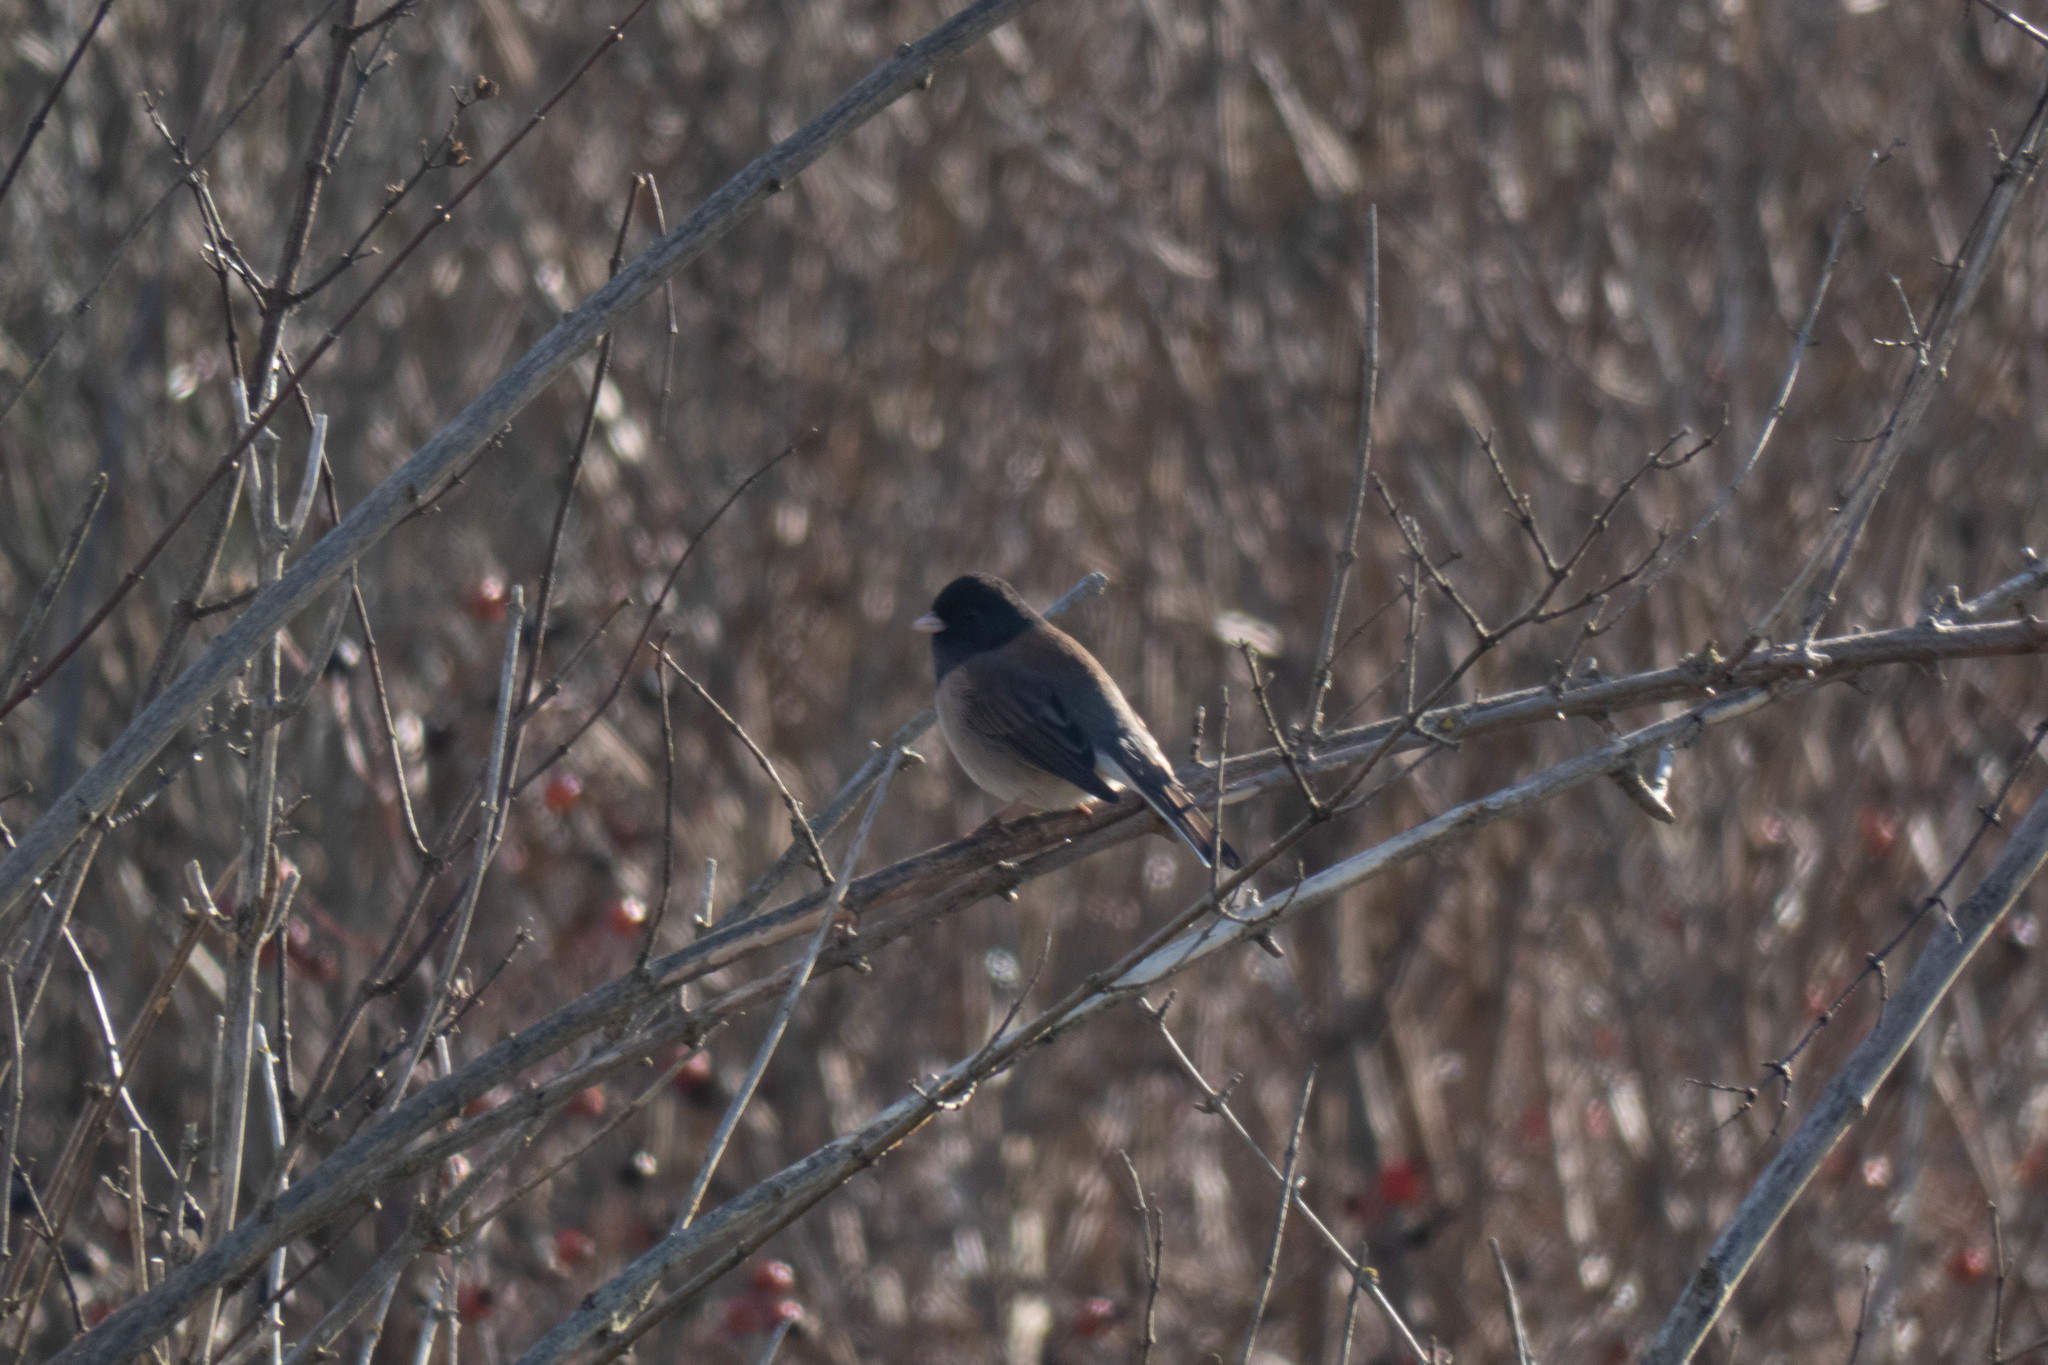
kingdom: Animalia
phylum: Chordata
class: Aves
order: Passeriformes
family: Passerellidae
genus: Junco
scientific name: Junco hyemalis
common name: Dark-eyed junco
